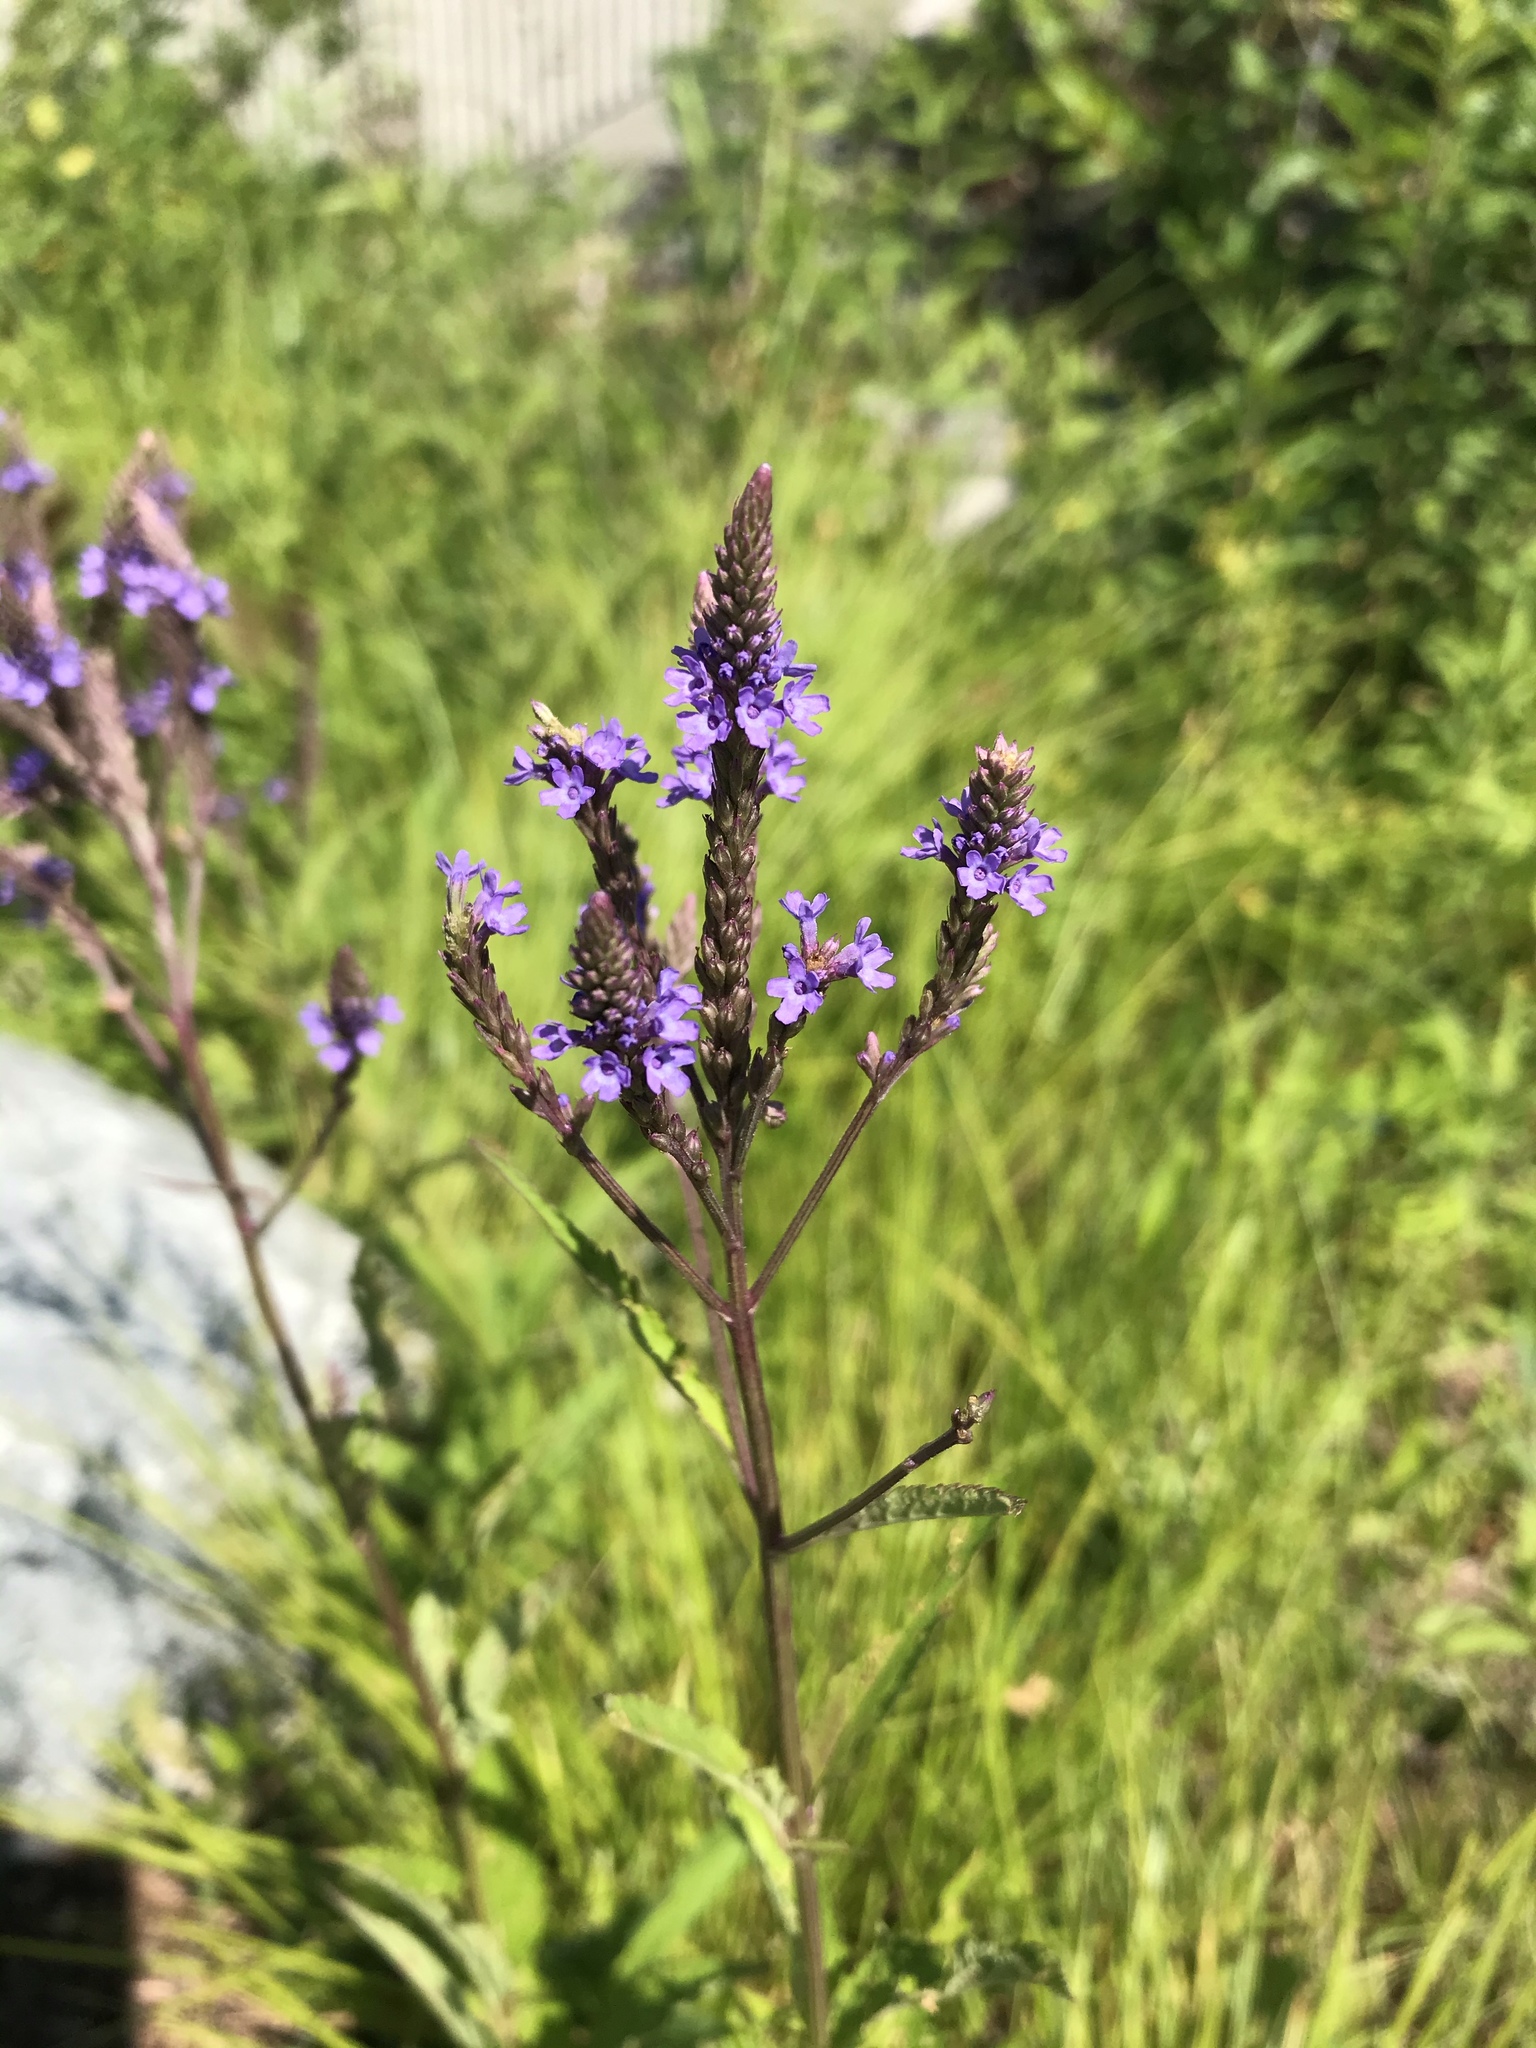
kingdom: Plantae
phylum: Tracheophyta
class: Magnoliopsida
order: Lamiales
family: Verbenaceae
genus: Verbena
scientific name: Verbena hastata
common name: American blue vervain
